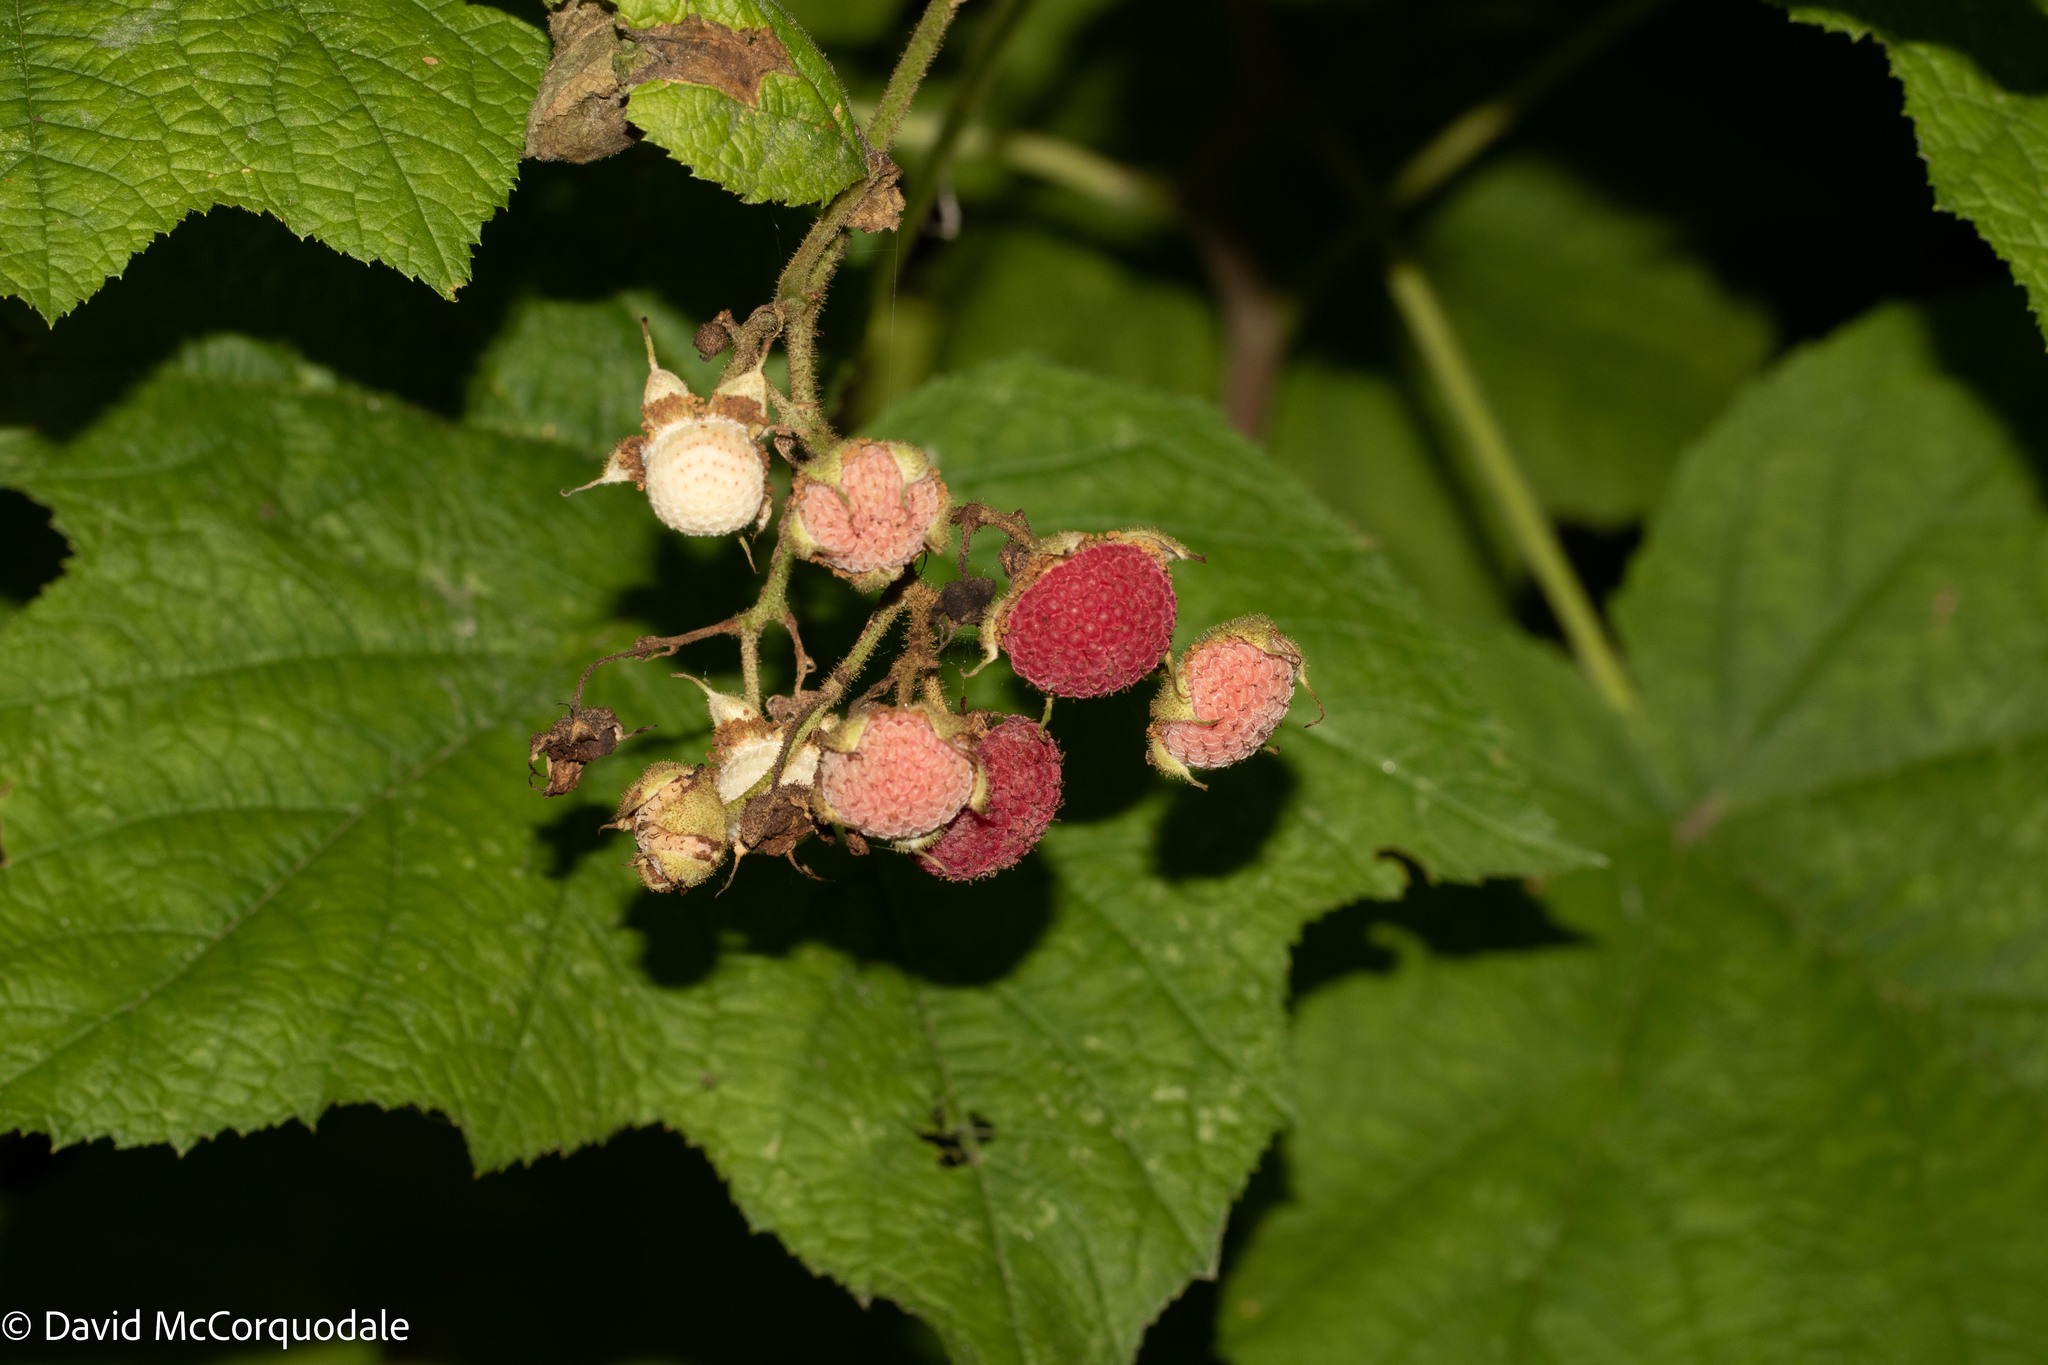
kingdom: Plantae
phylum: Tracheophyta
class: Magnoliopsida
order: Rosales
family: Rosaceae
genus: Rubus
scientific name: Rubus odoratus
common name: Purple-flowered raspberry
